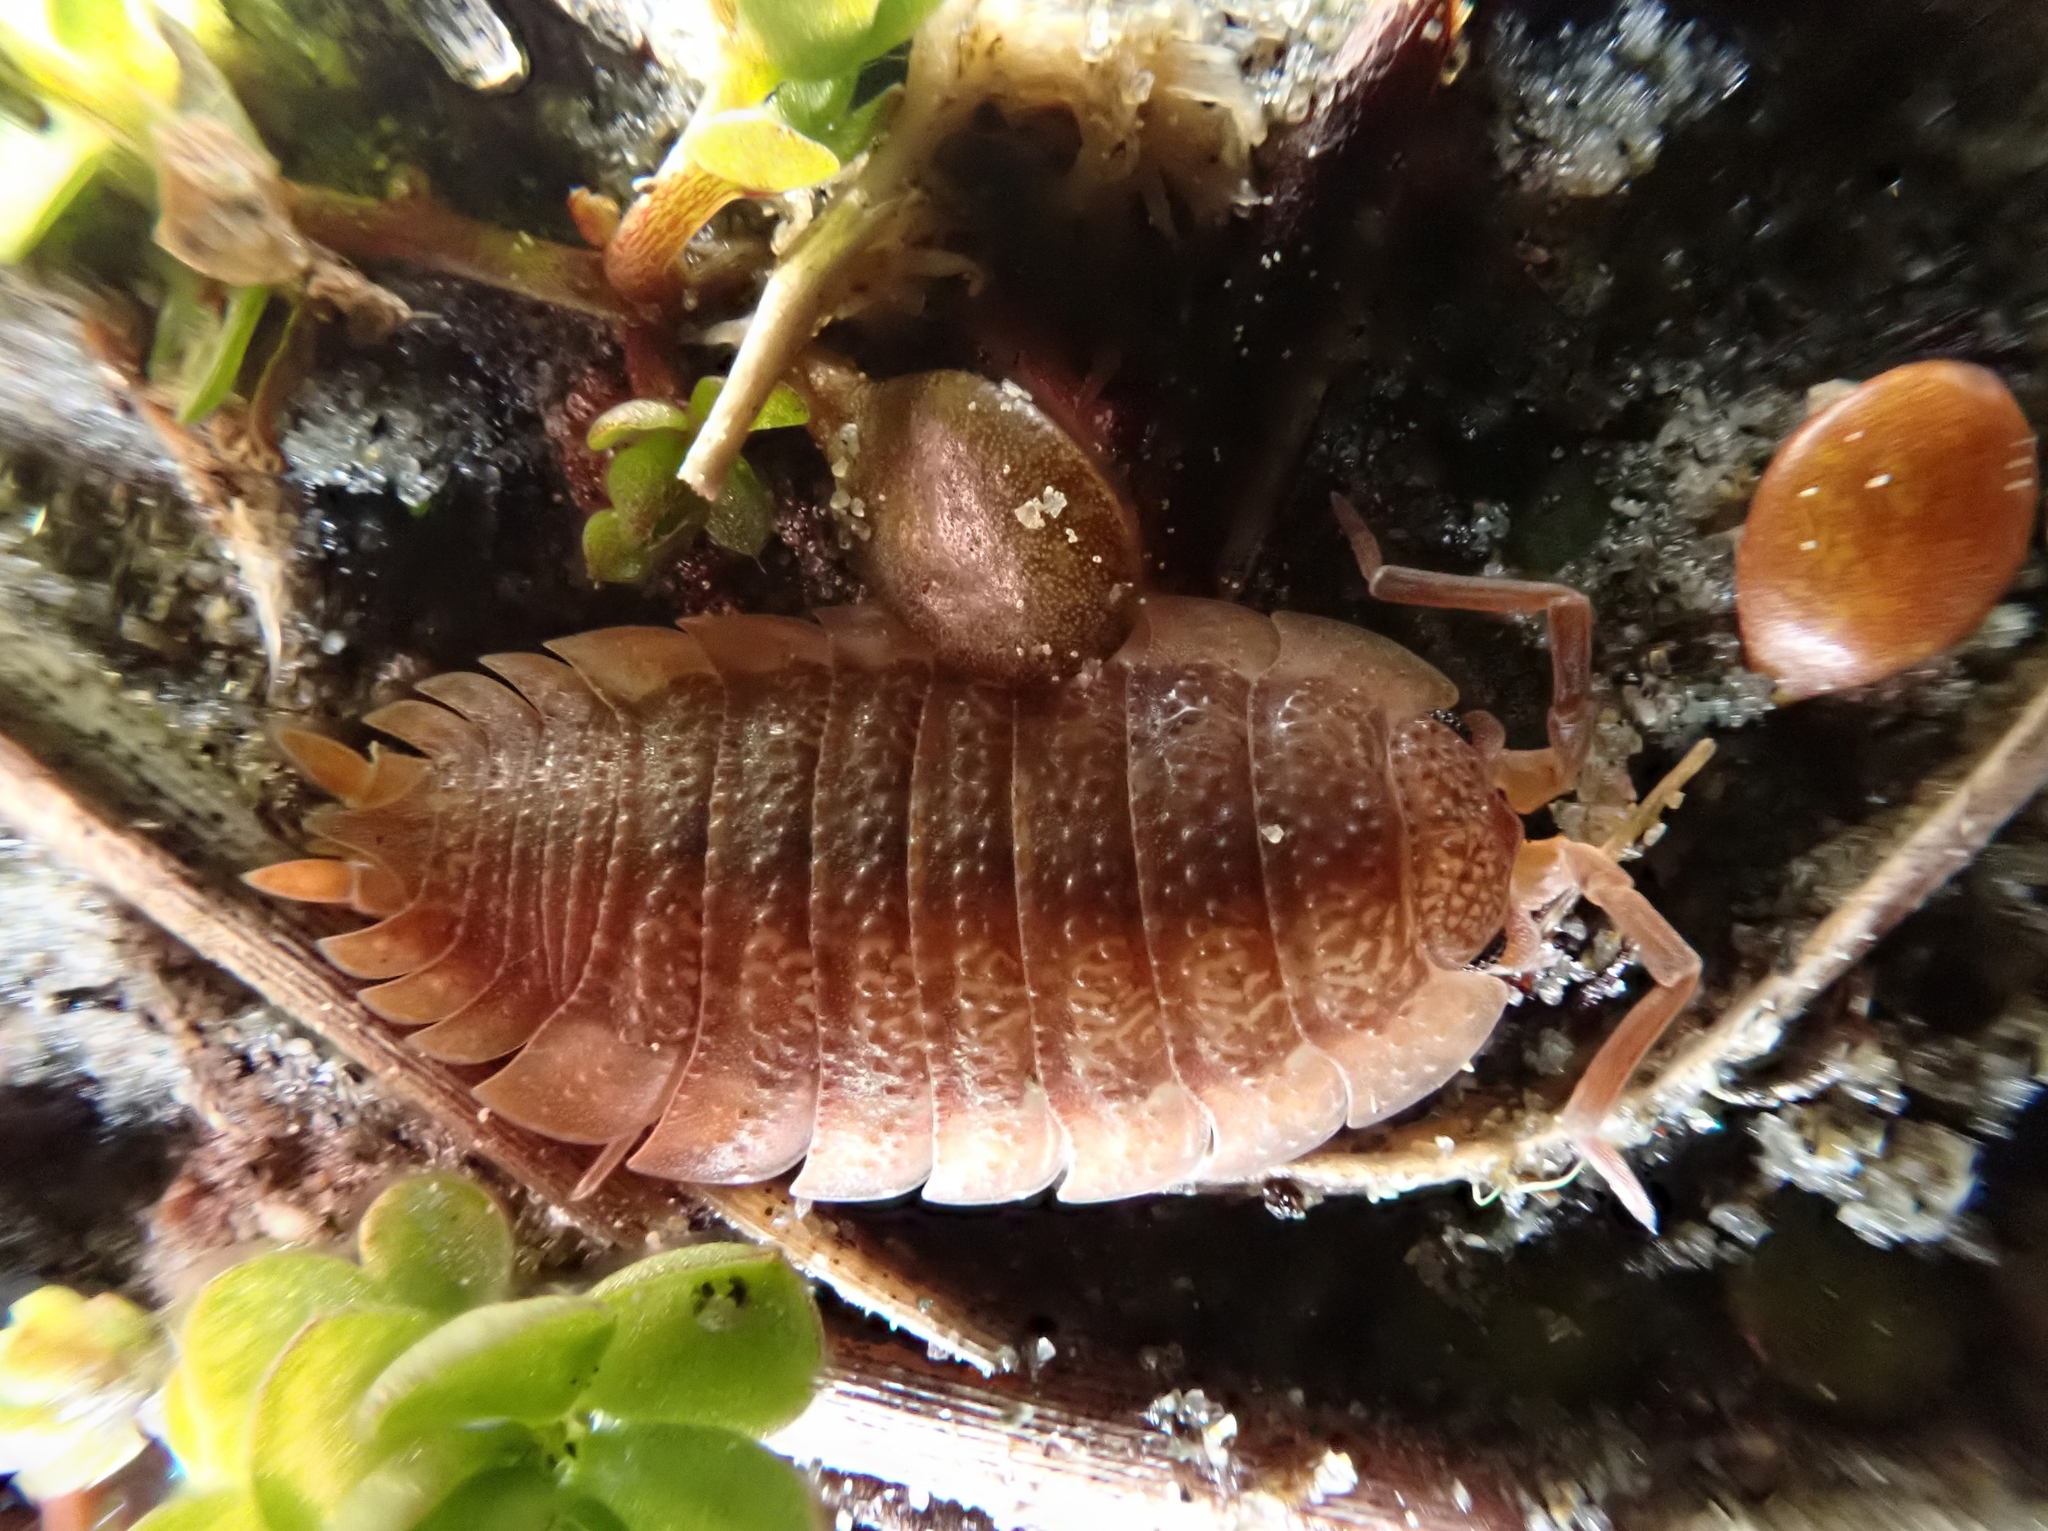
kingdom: Animalia
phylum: Arthropoda
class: Malacostraca
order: Isopoda
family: Porcellionidae
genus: Porcellio
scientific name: Porcellio scaber
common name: Common rough woodlouse
